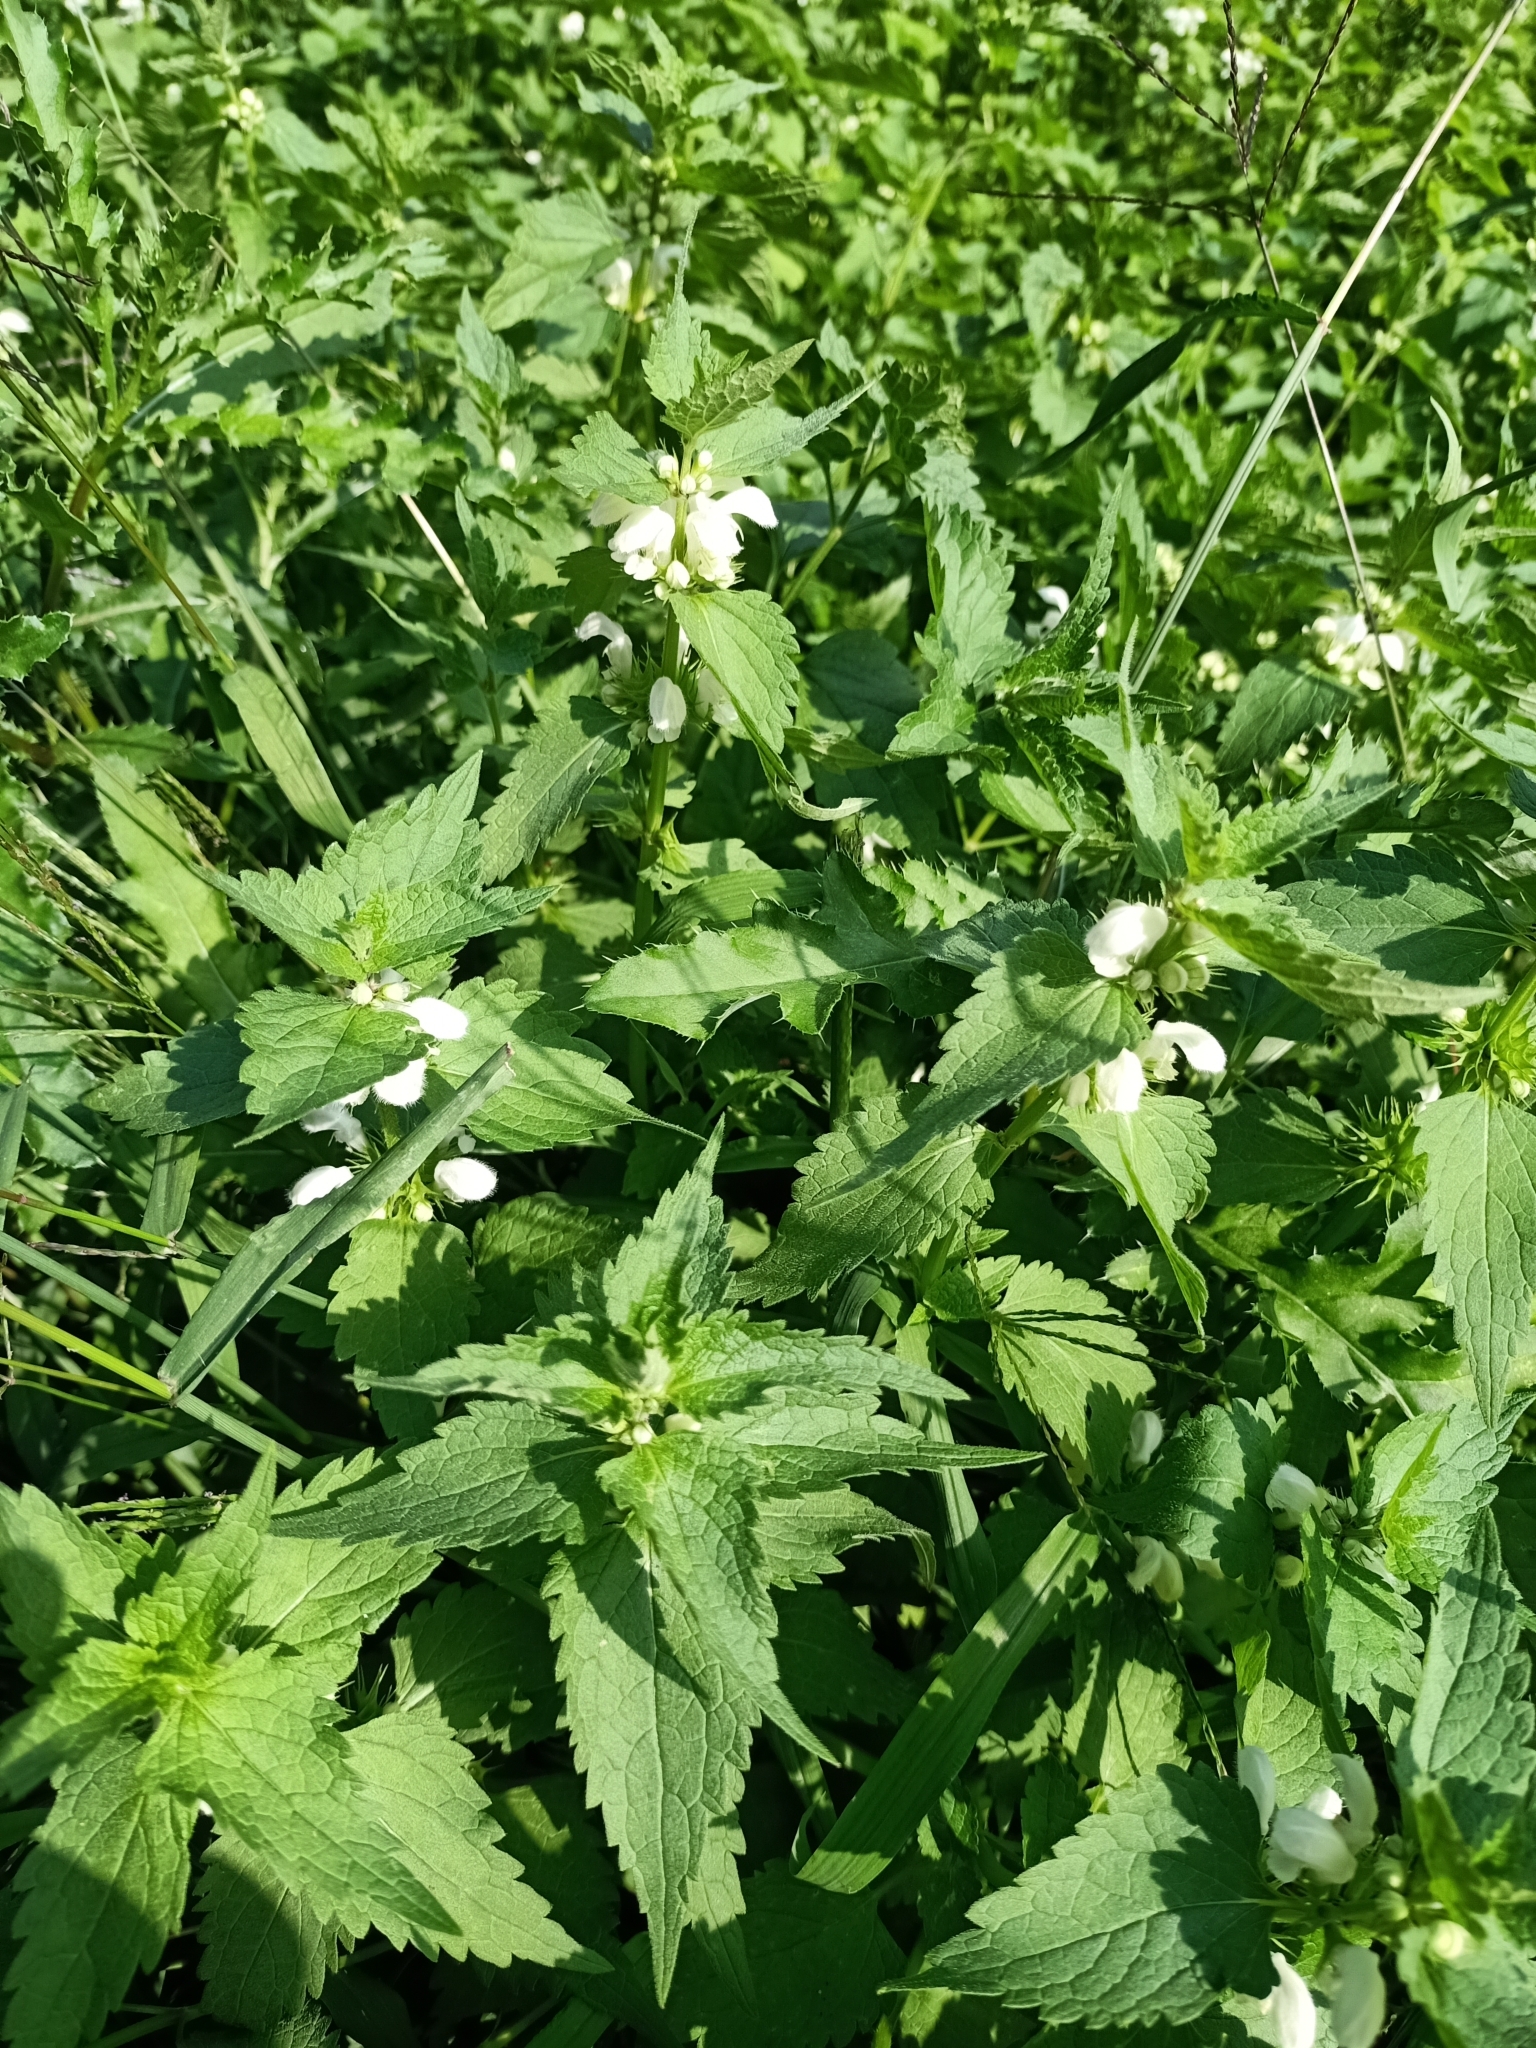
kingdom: Plantae
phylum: Tracheophyta
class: Magnoliopsida
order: Lamiales
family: Lamiaceae
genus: Lamium
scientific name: Lamium album
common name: White dead-nettle
